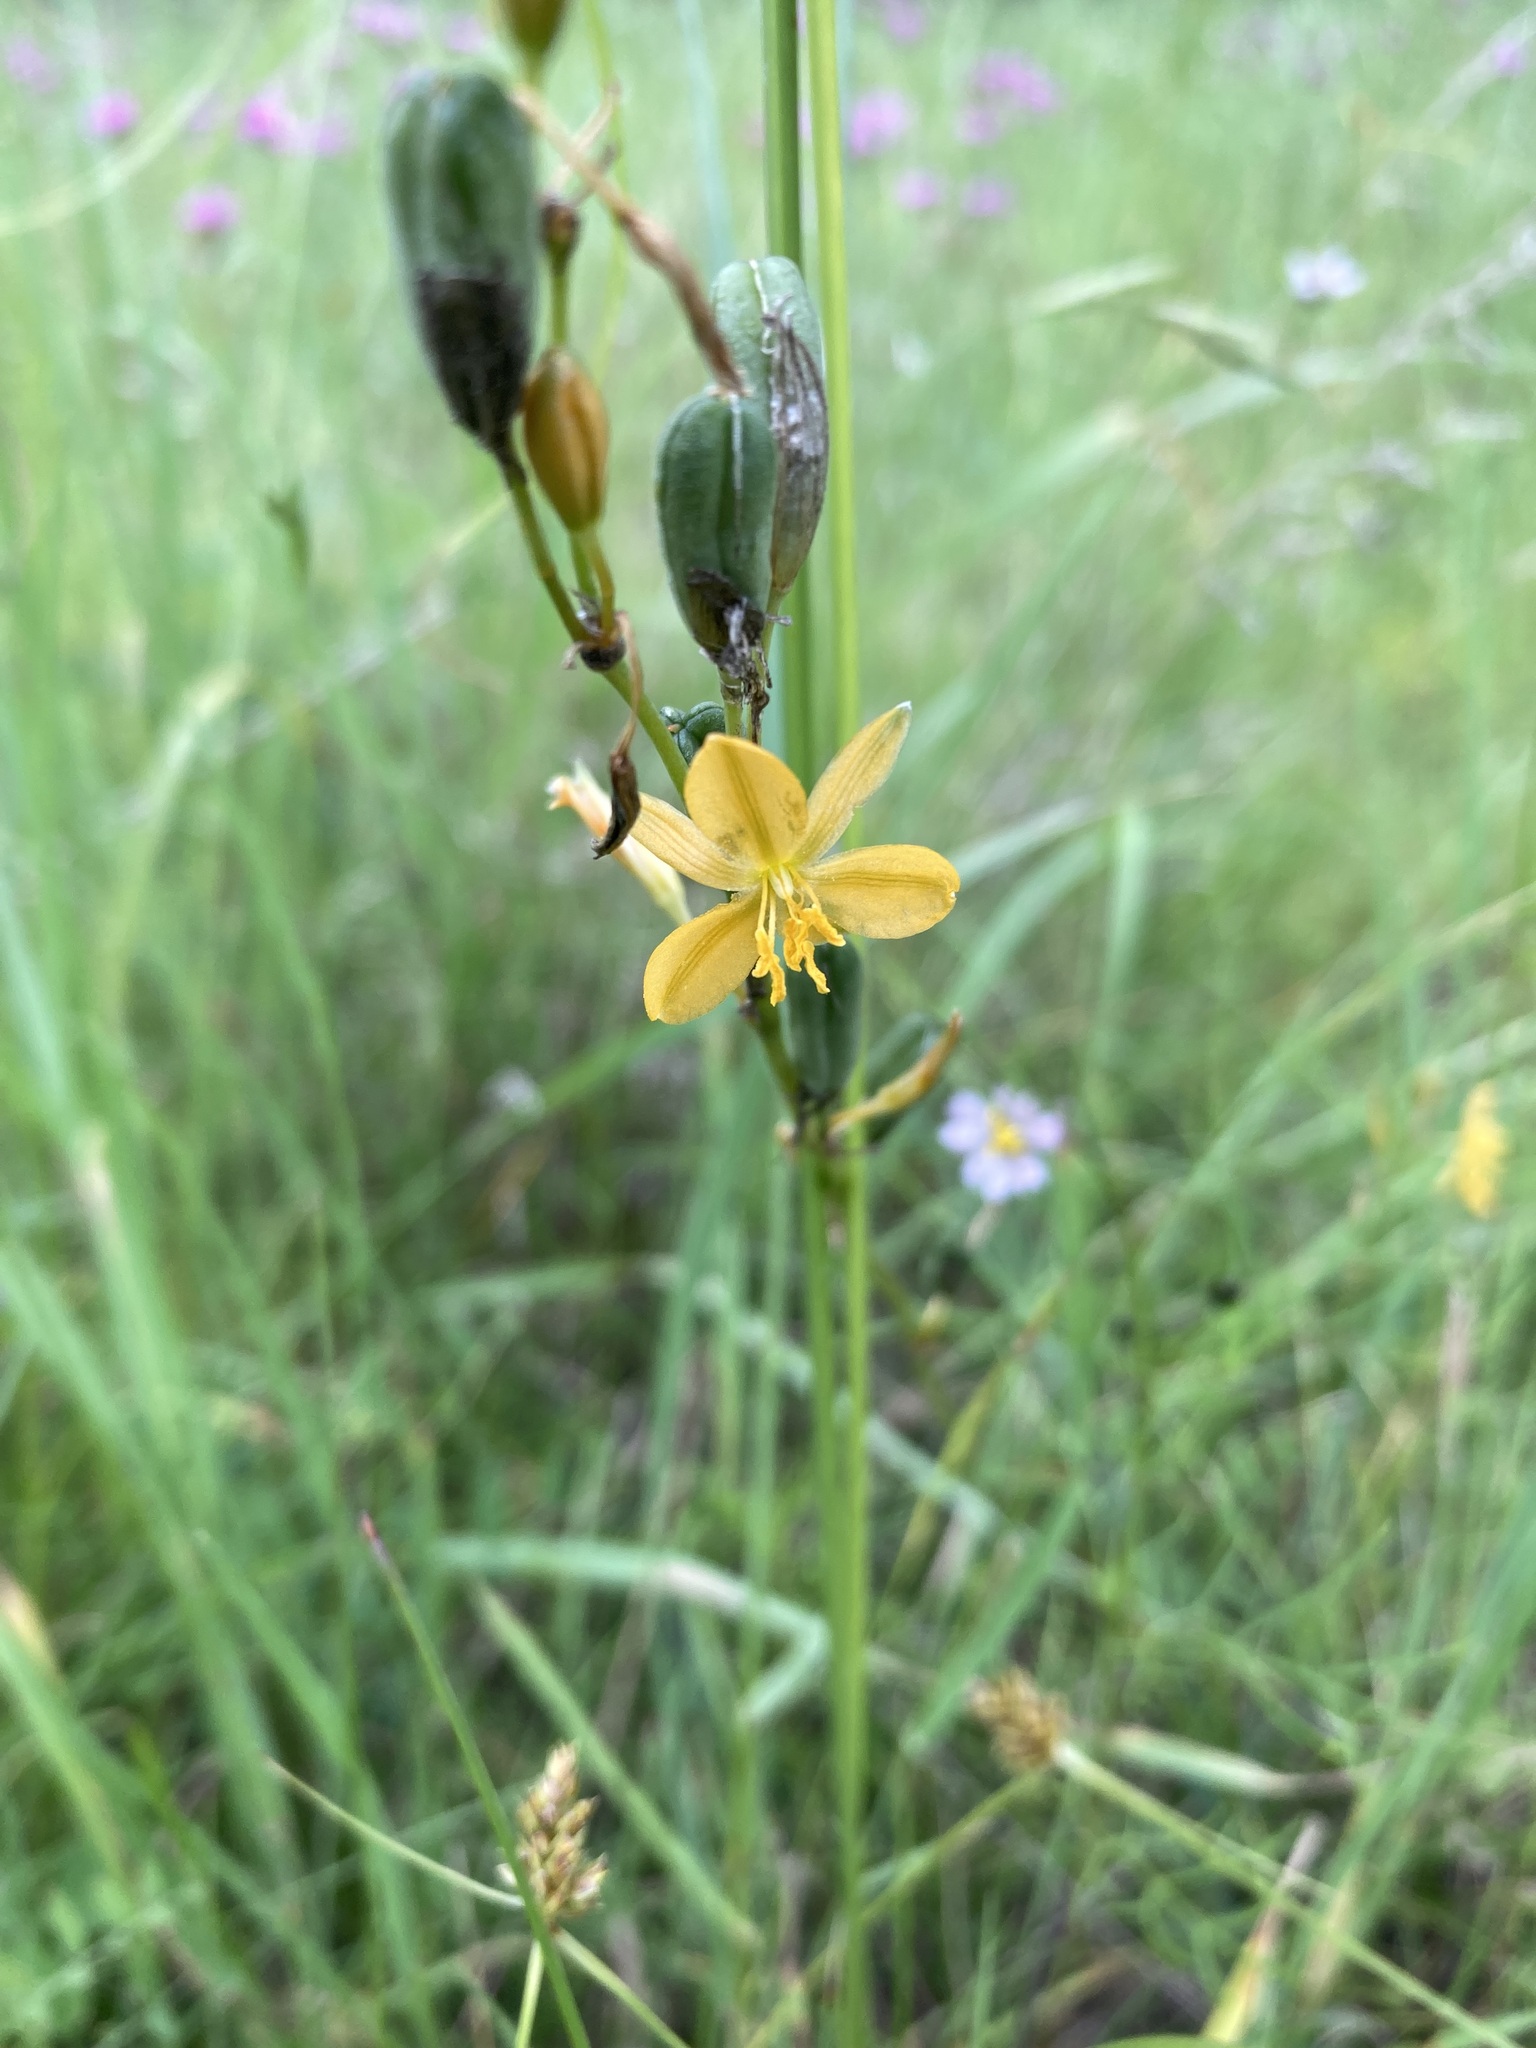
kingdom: Plantae
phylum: Tracheophyta
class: Liliopsida
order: Asparagales
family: Asparagaceae
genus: Echeandia
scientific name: Echeandia flavescens
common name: Amberlily
